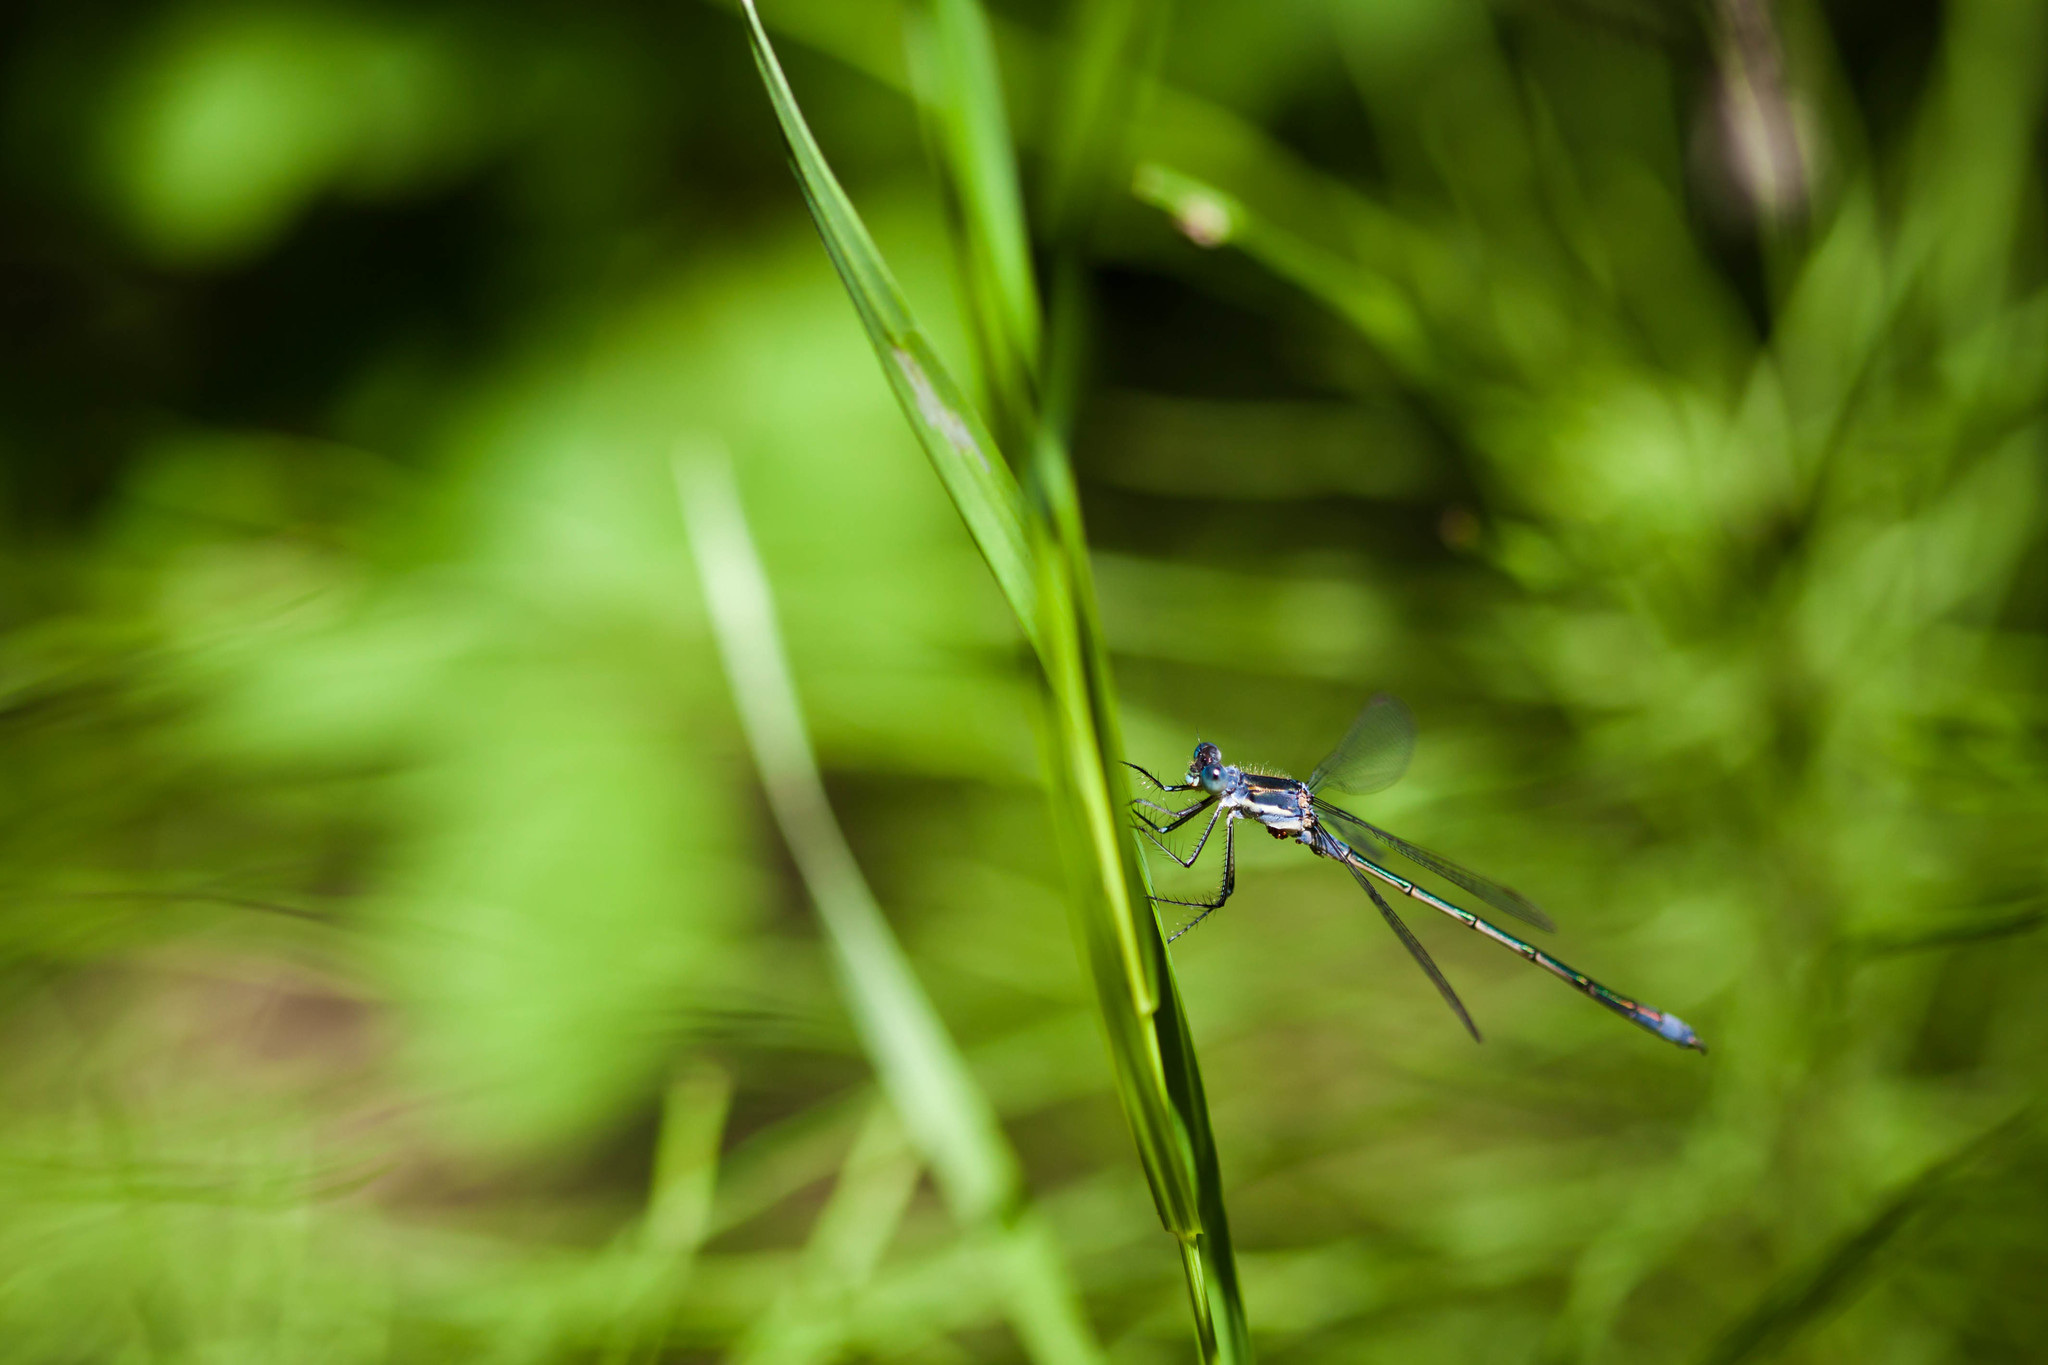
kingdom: Animalia
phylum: Arthropoda
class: Insecta
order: Odonata
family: Lestidae
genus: Lestes
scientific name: Lestes disjunctus
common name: Northern spreadwing
